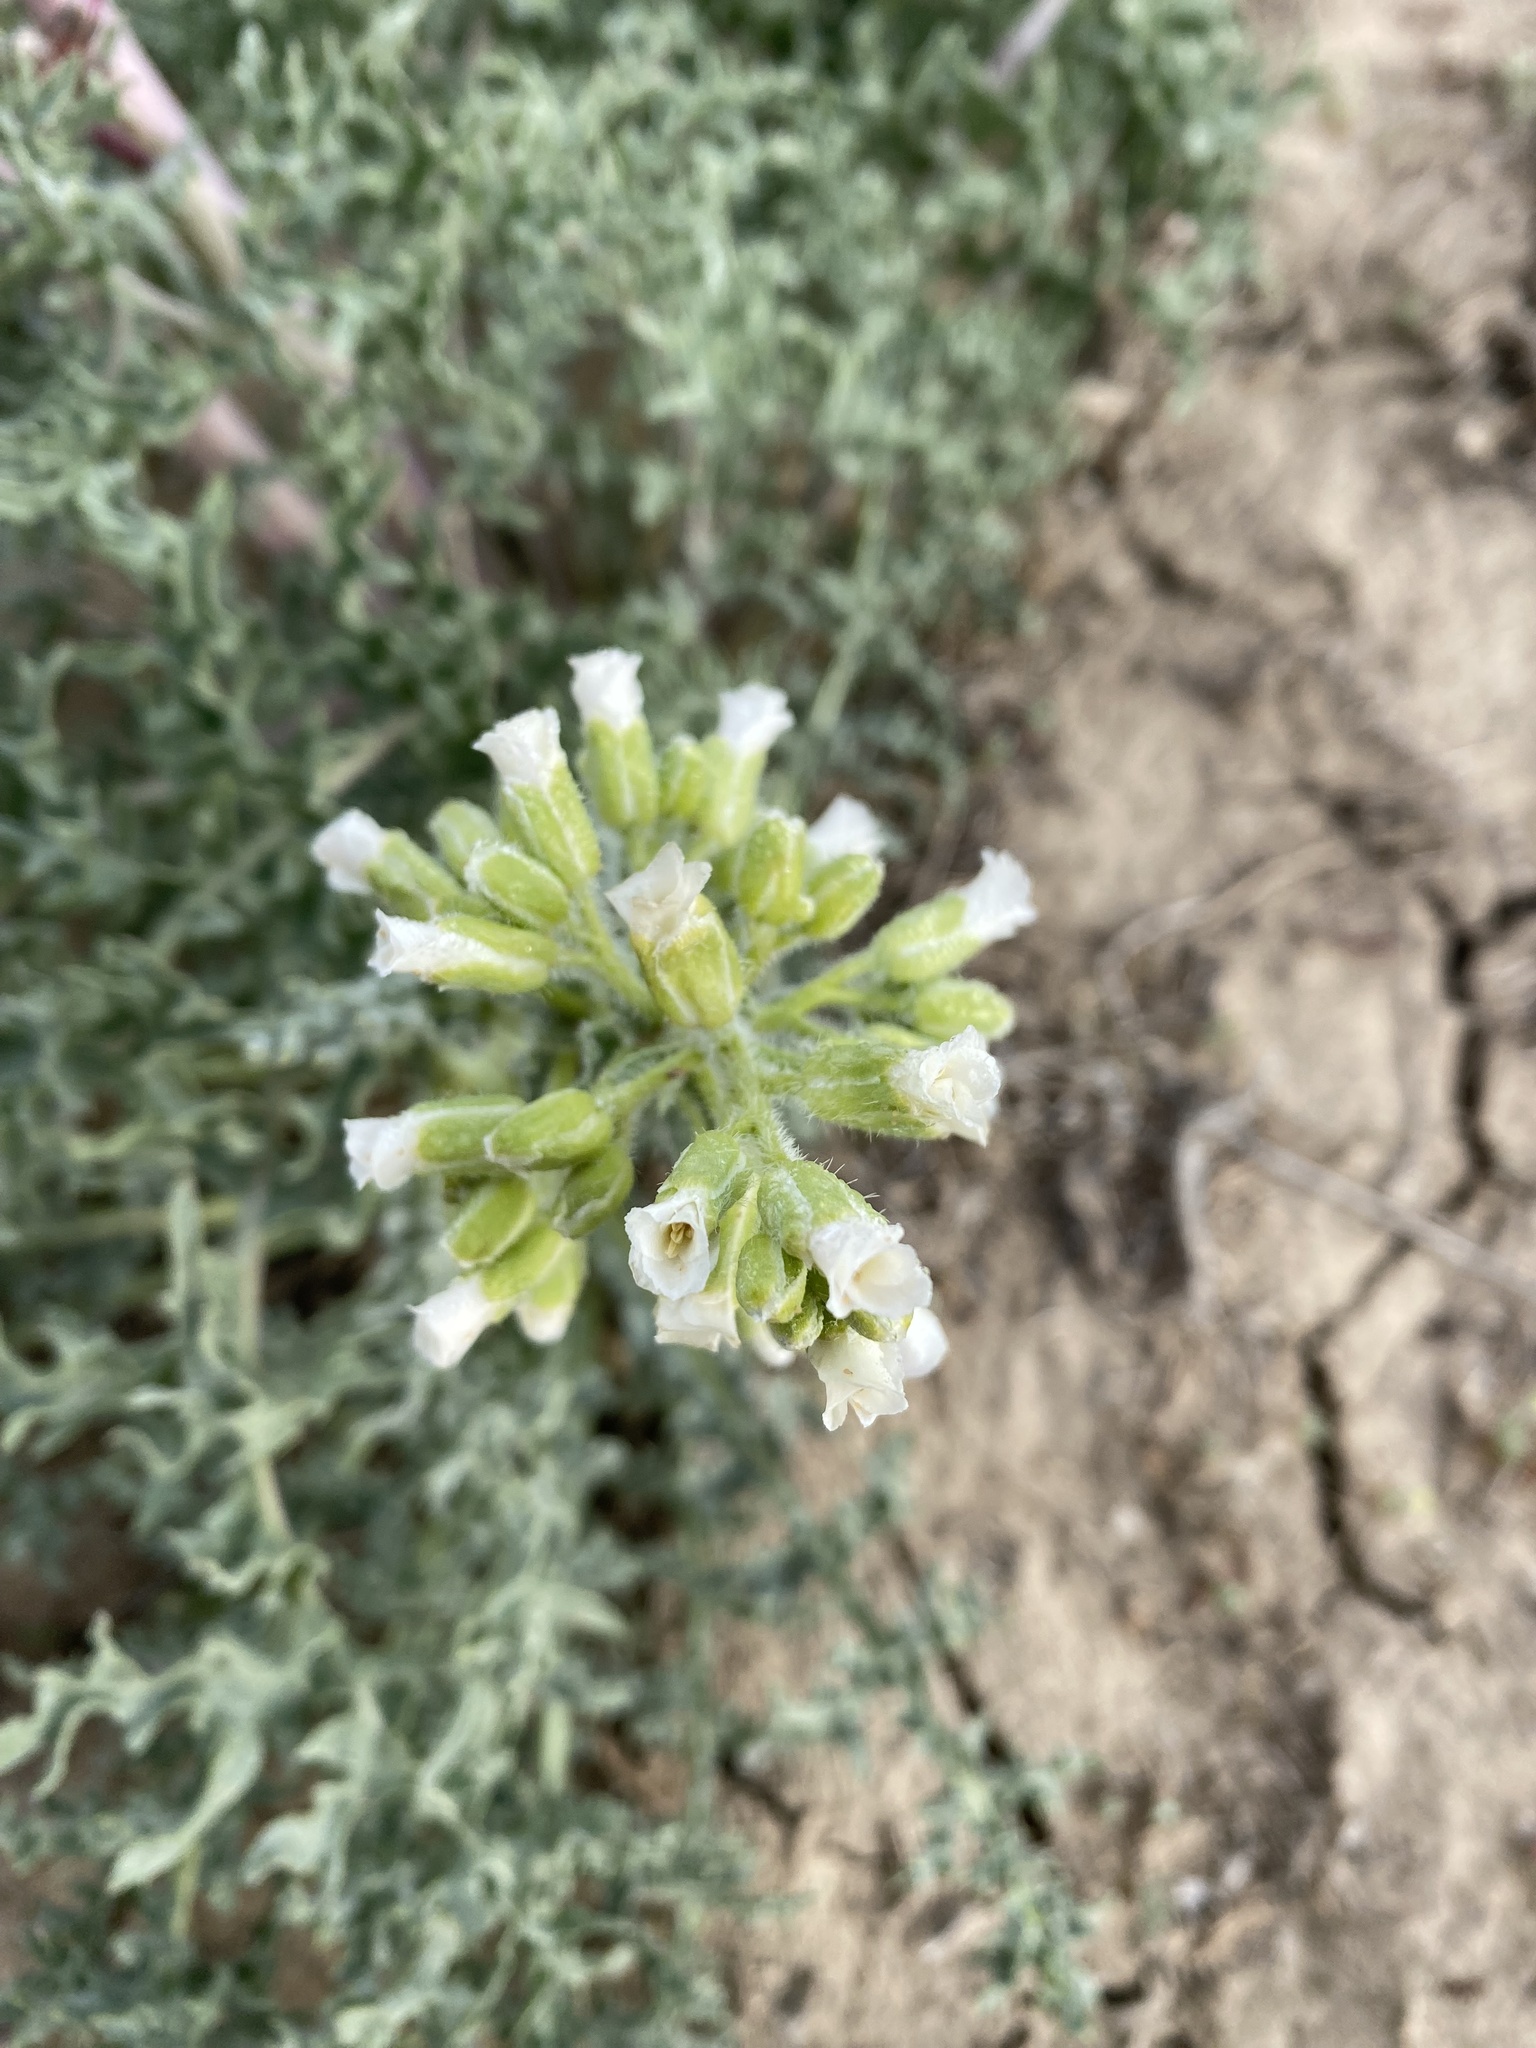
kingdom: Plantae
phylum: Tracheophyta
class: Magnoliopsida
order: Brassicales
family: Brassicaceae
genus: Megacarpaea
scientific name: Megacarpaea megalocarpa
